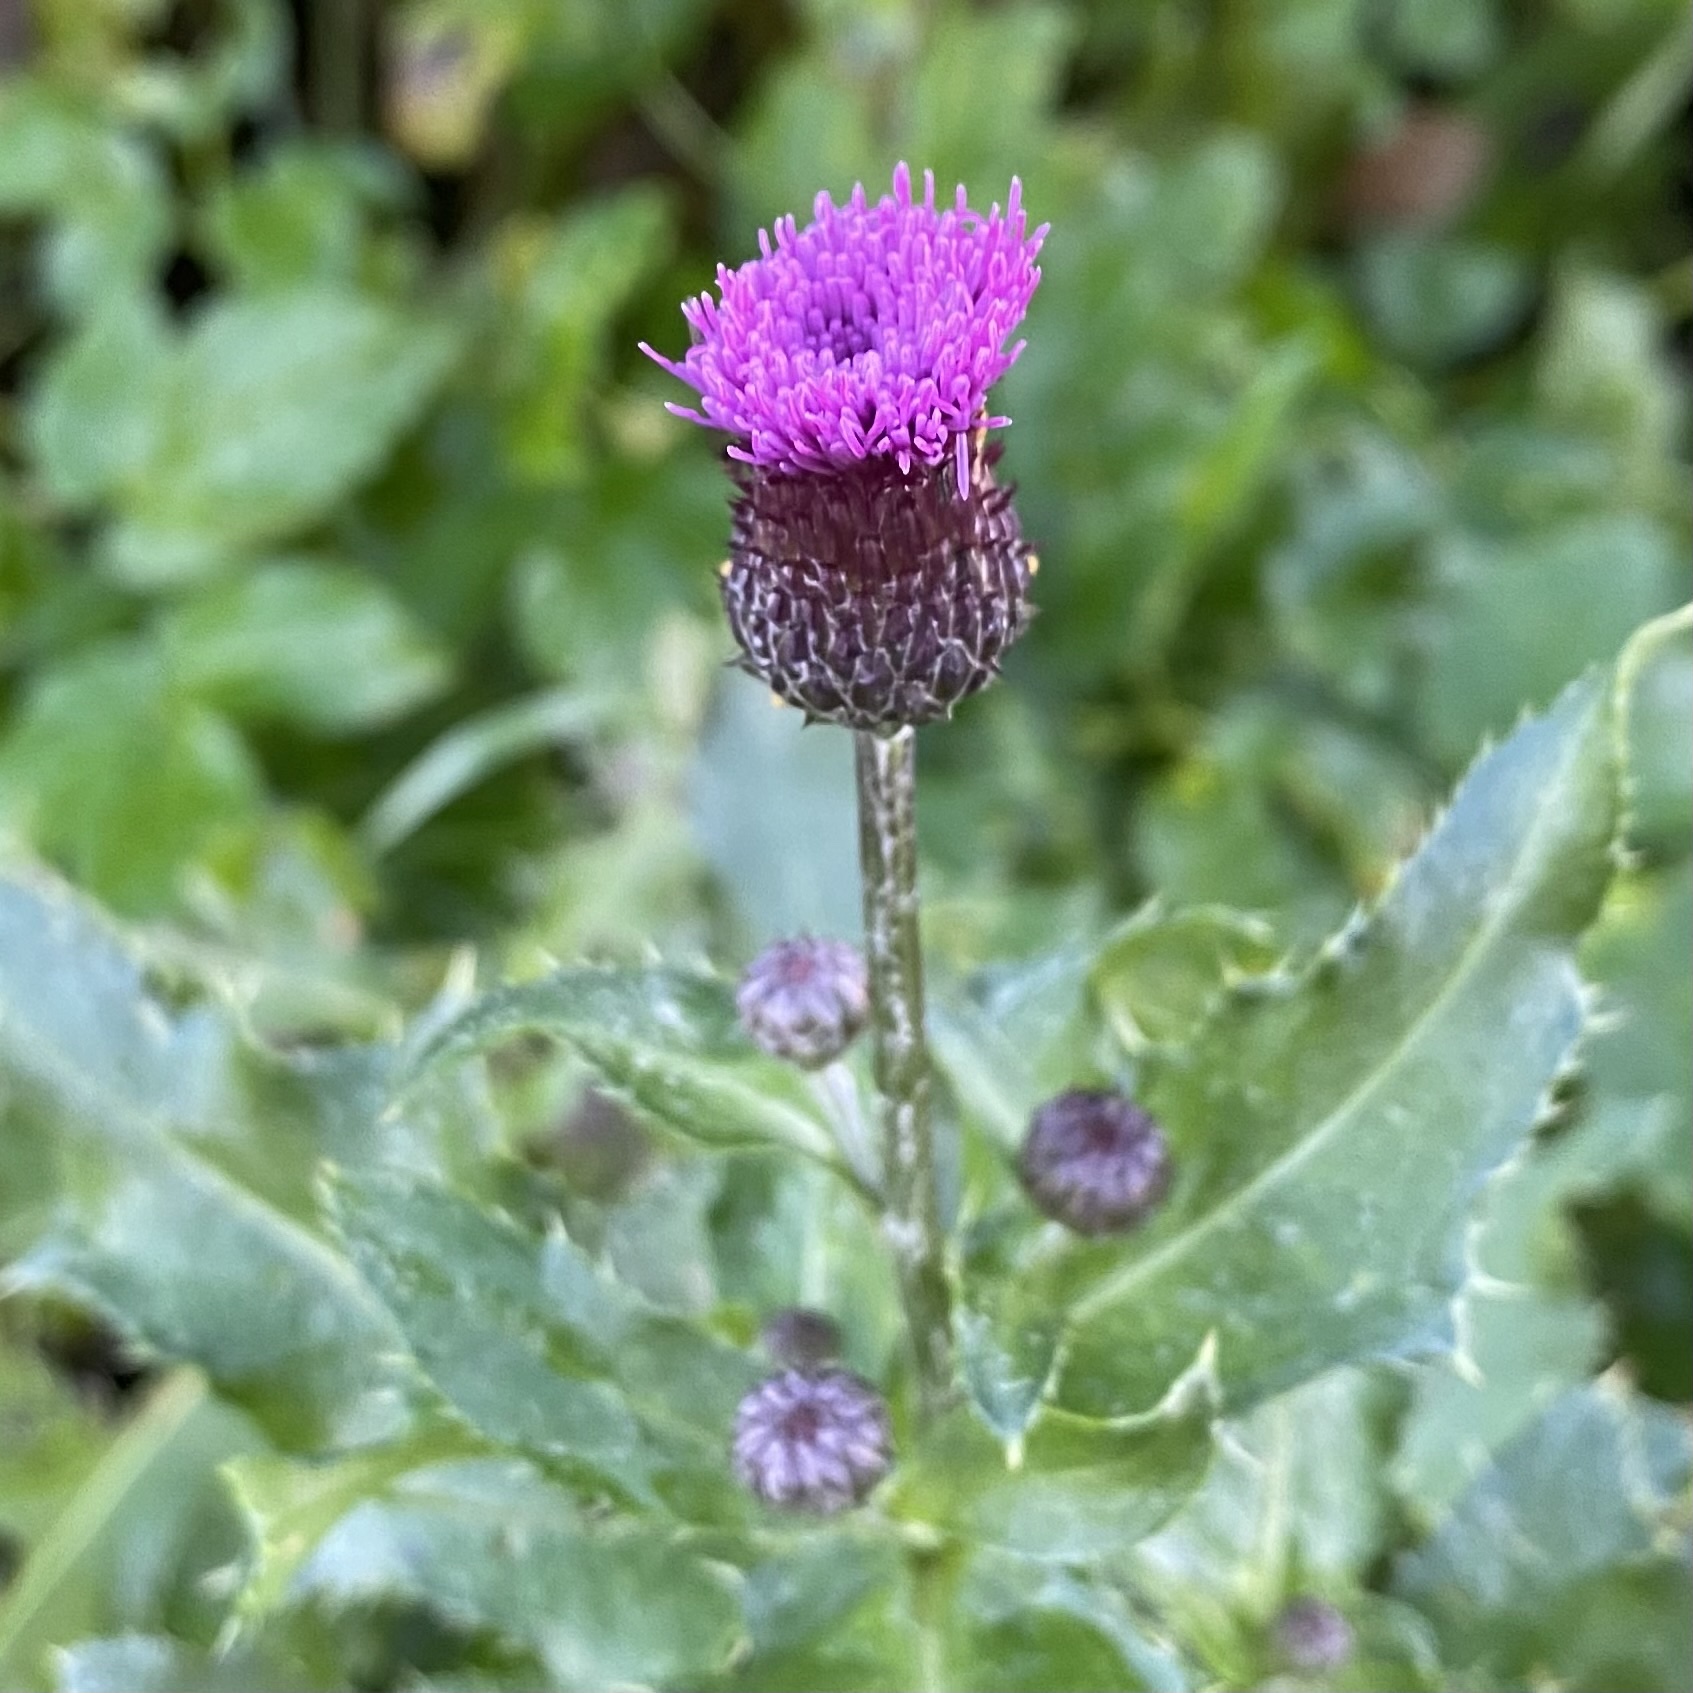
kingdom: Plantae
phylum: Tracheophyta
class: Magnoliopsida
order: Asterales
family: Asteraceae
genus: Cirsium
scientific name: Cirsium arvense
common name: Creeping thistle
